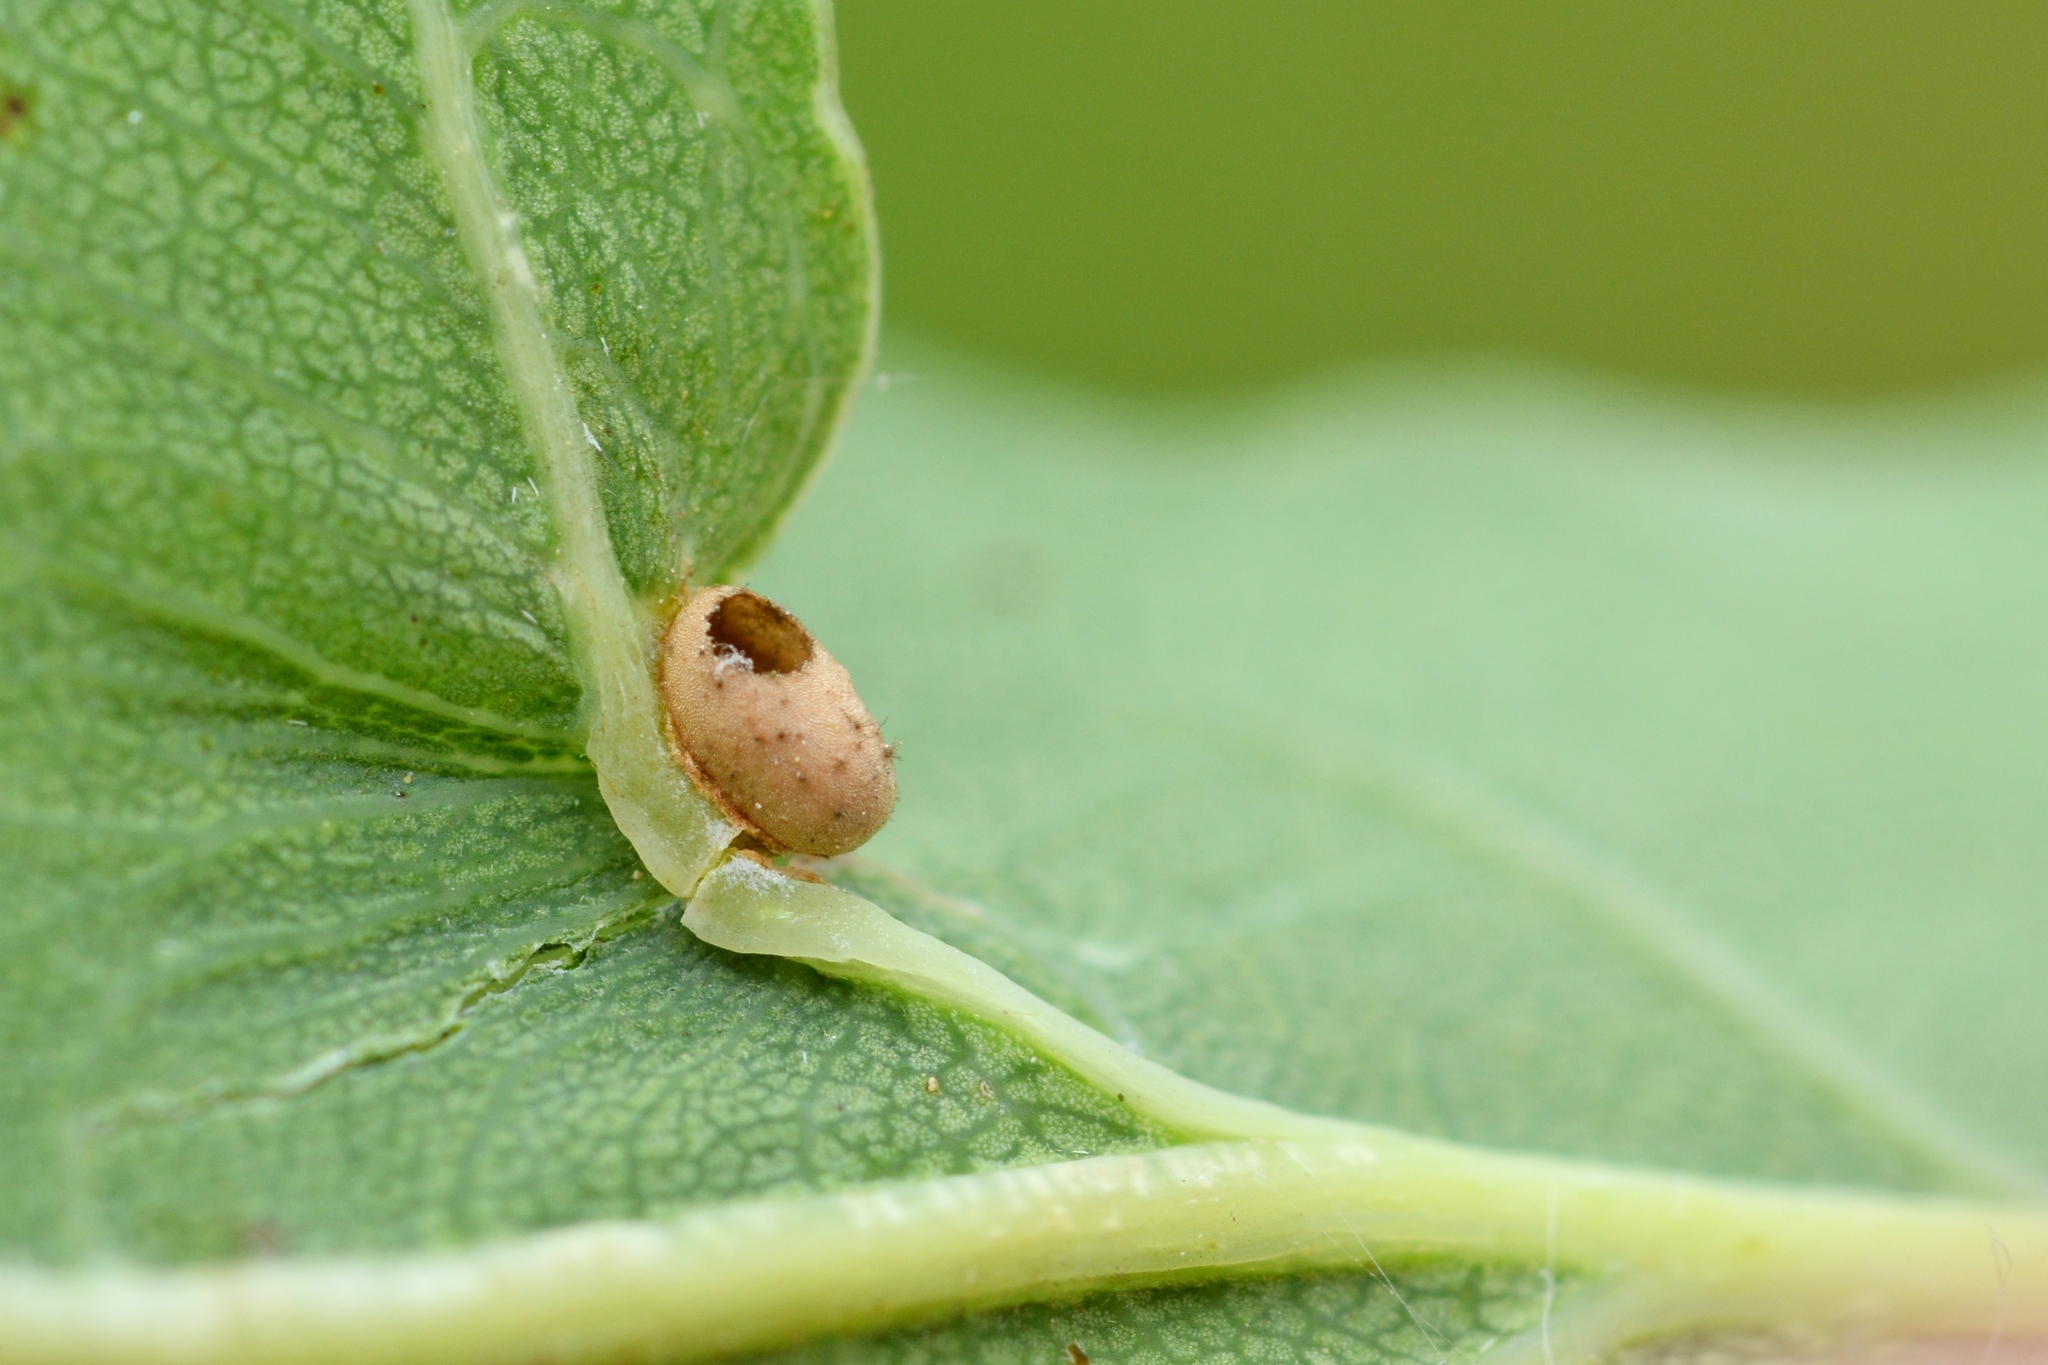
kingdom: Animalia
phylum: Arthropoda
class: Insecta
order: Hymenoptera
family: Cynipidae
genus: Neuroterus
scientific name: Neuroterus albipes
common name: Smooth spangle gall
